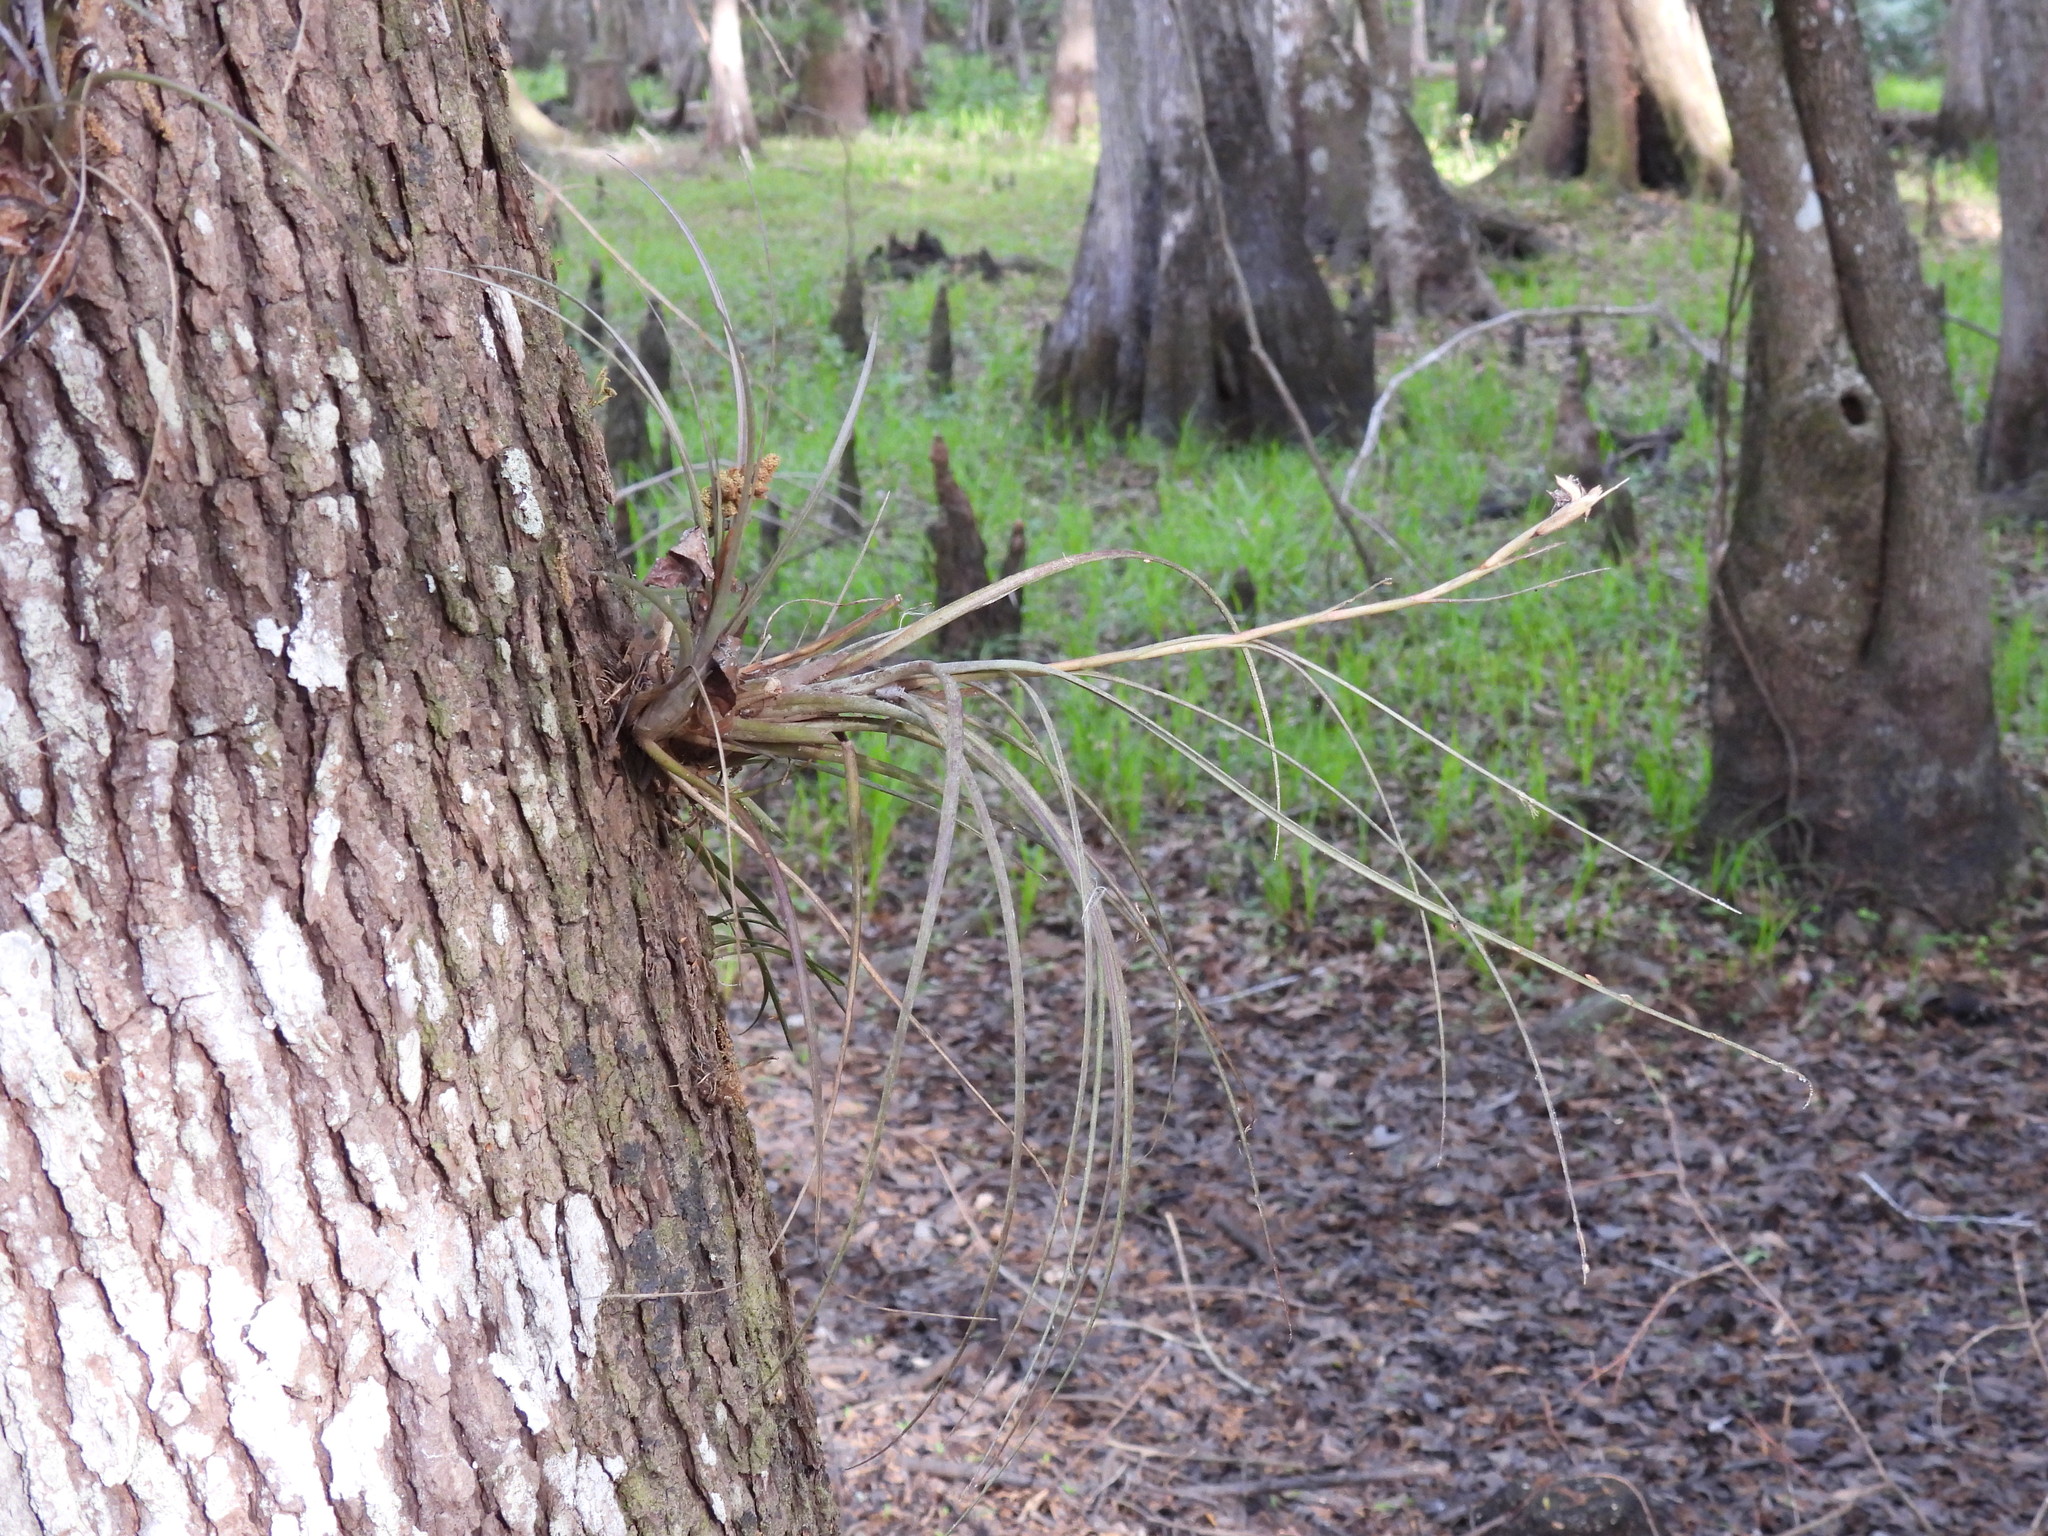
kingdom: Plantae
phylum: Tracheophyta
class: Liliopsida
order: Poales
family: Bromeliaceae
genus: Tillandsia
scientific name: Tillandsia simulata
